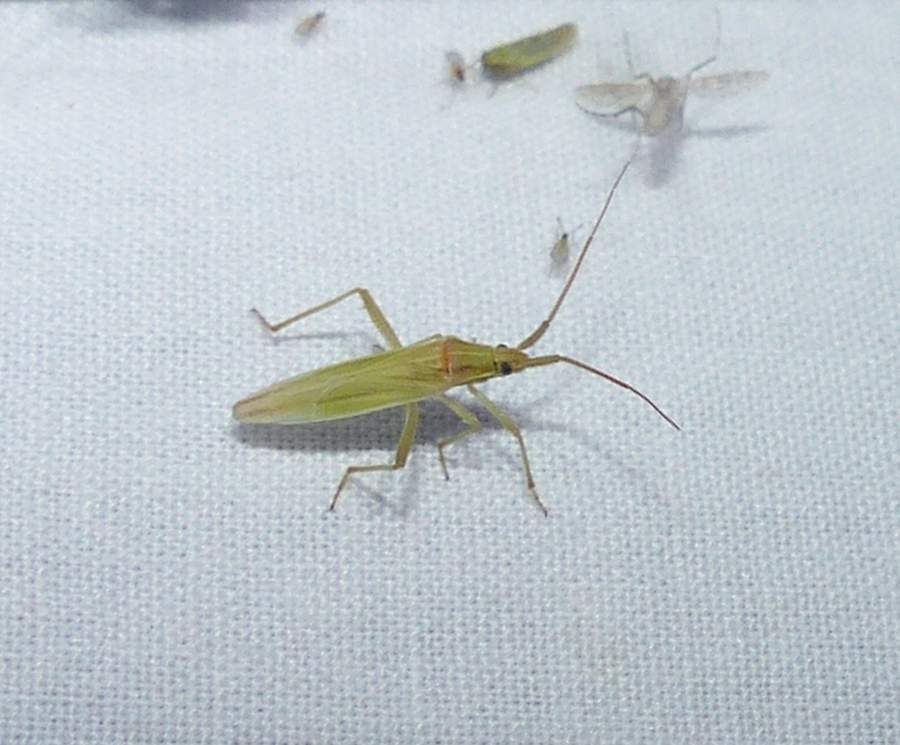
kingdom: Animalia
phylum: Arthropoda
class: Insecta
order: Hemiptera
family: Miridae
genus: Stenodema
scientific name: Stenodema trispinosa
